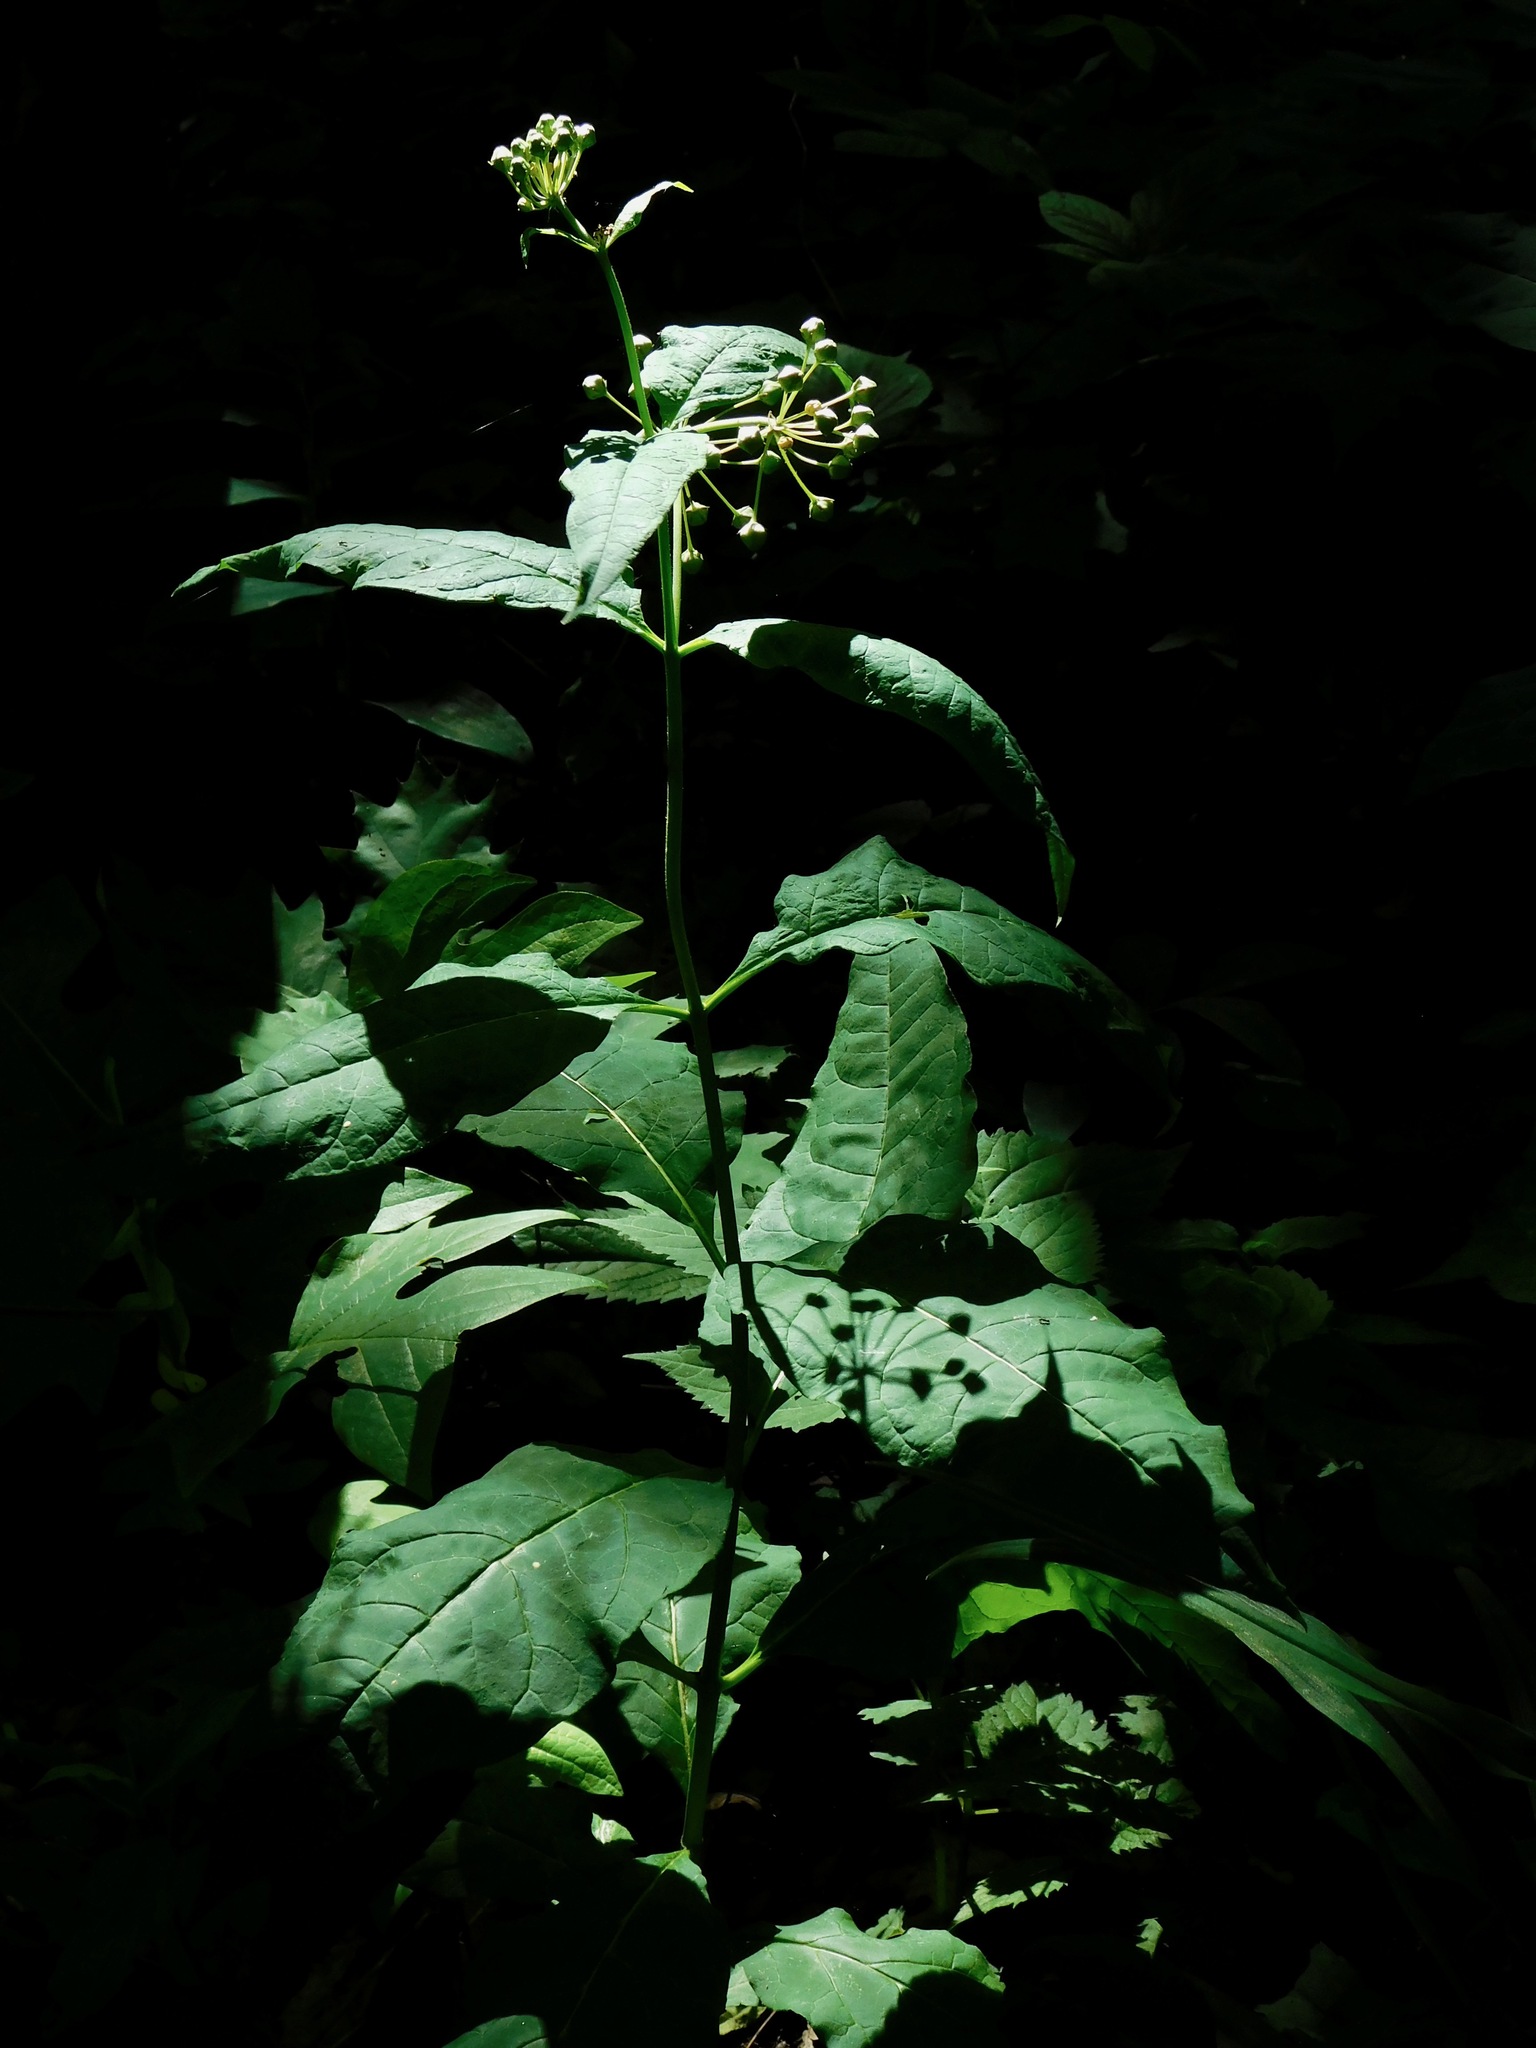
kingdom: Plantae
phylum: Tracheophyta
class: Magnoliopsida
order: Gentianales
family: Apocynaceae
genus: Asclepias
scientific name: Asclepias exaltata
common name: Poke milkweed
